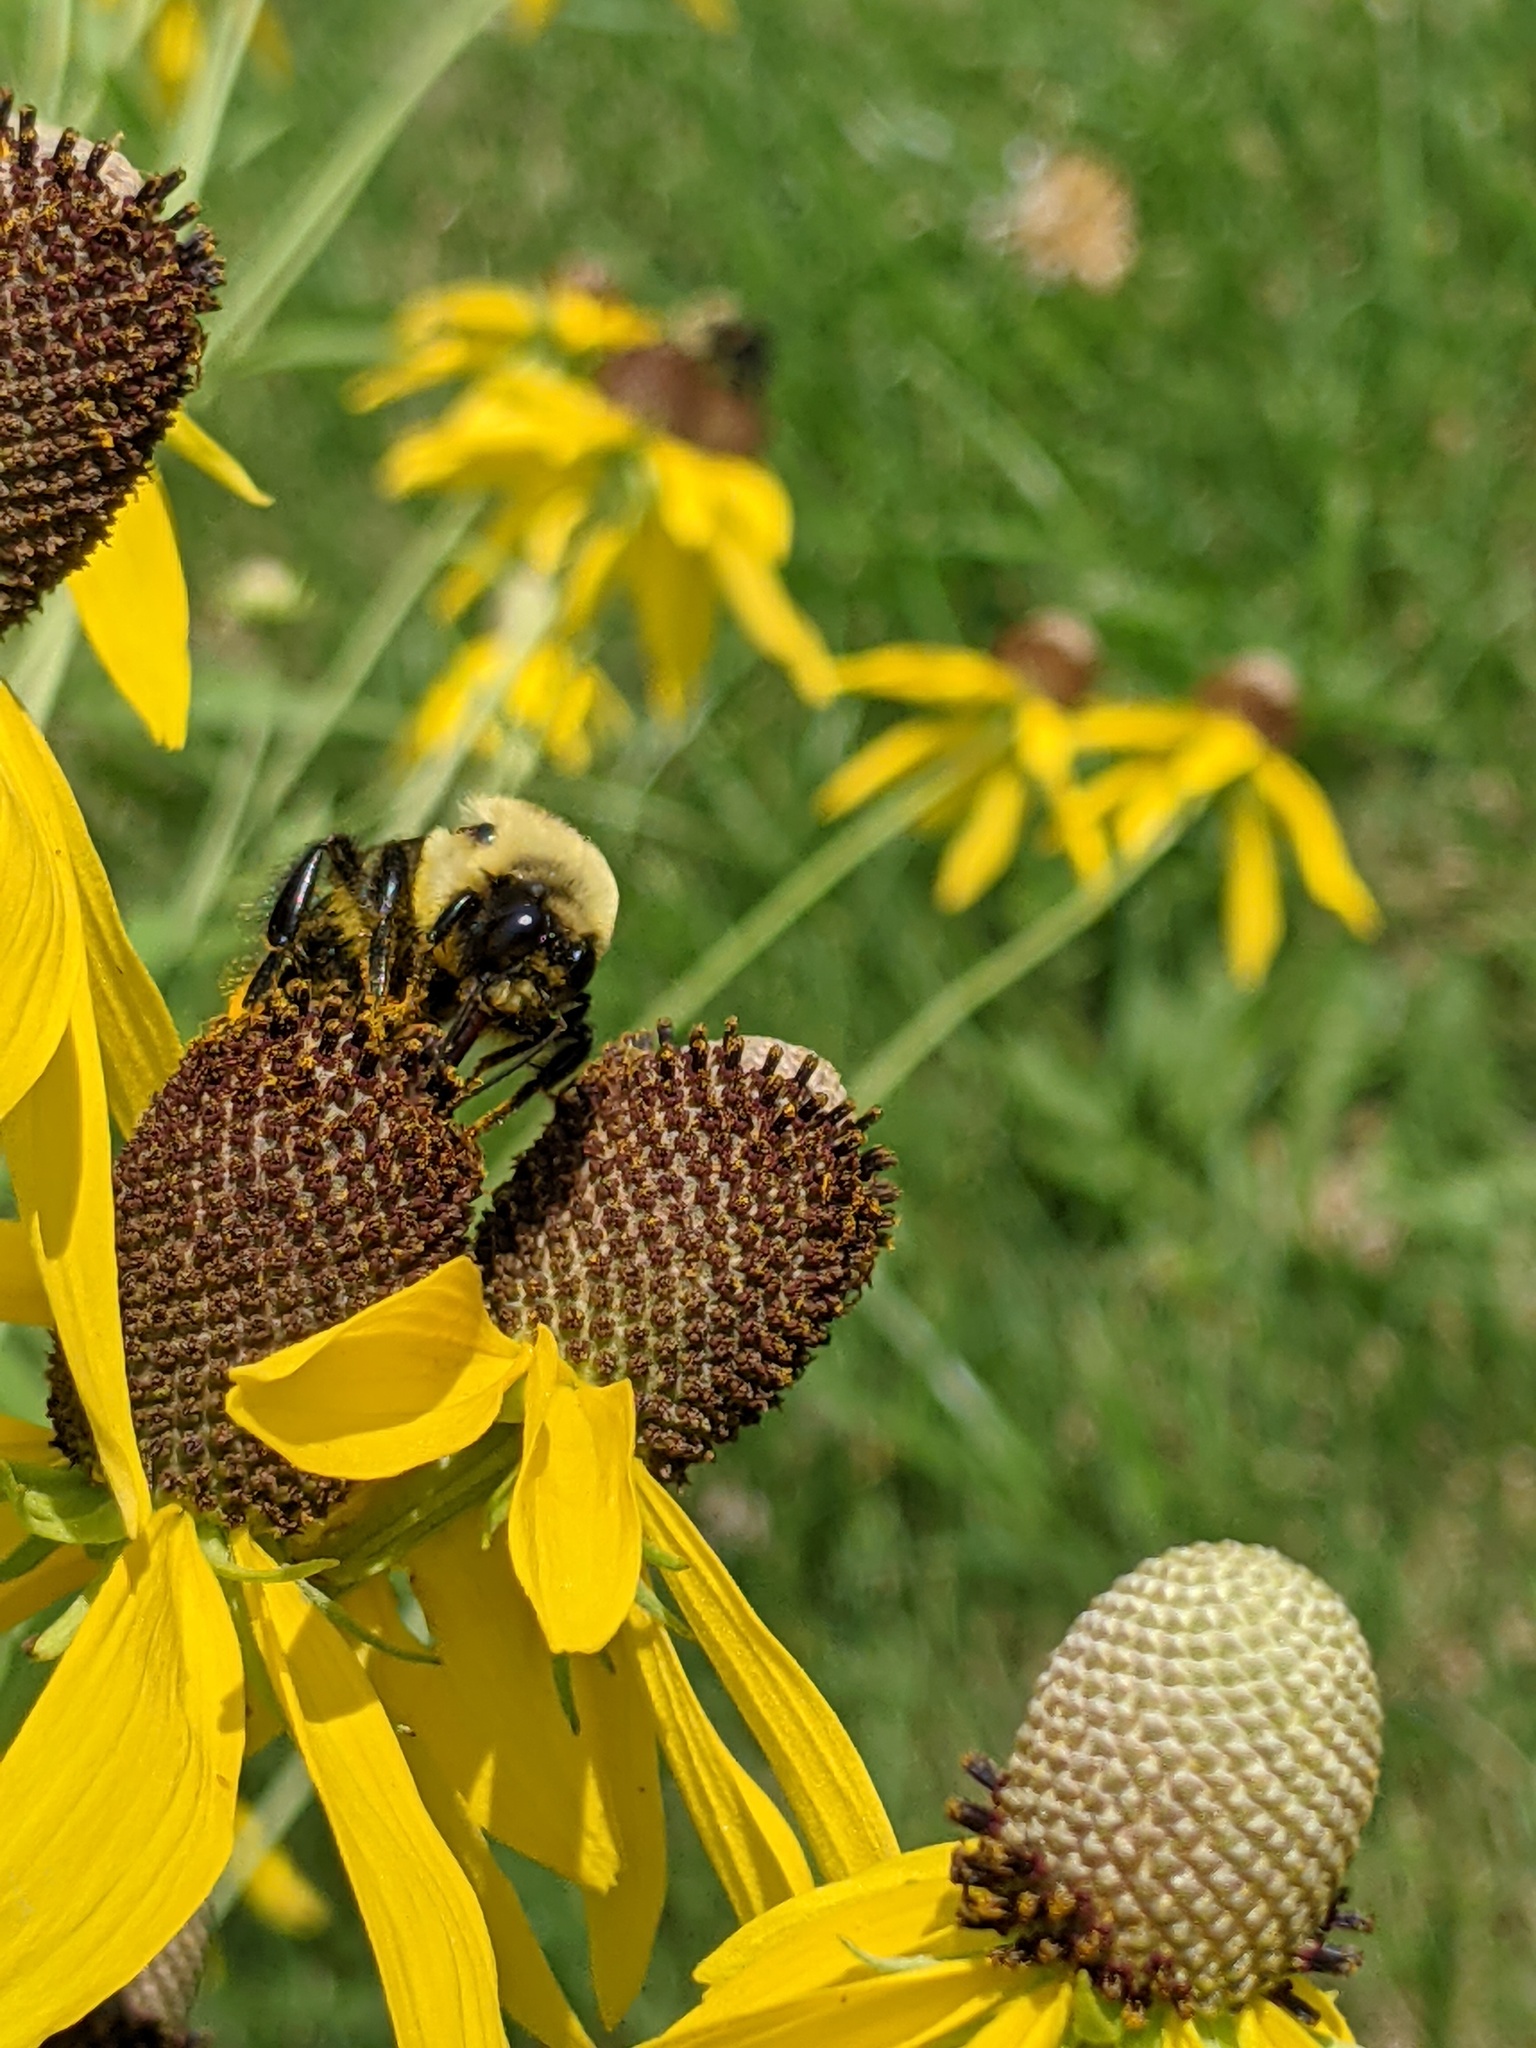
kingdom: Animalia
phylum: Arthropoda
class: Insecta
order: Hymenoptera
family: Apidae
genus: Bombus
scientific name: Bombus griseocollis
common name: Brown-belted bumble bee
